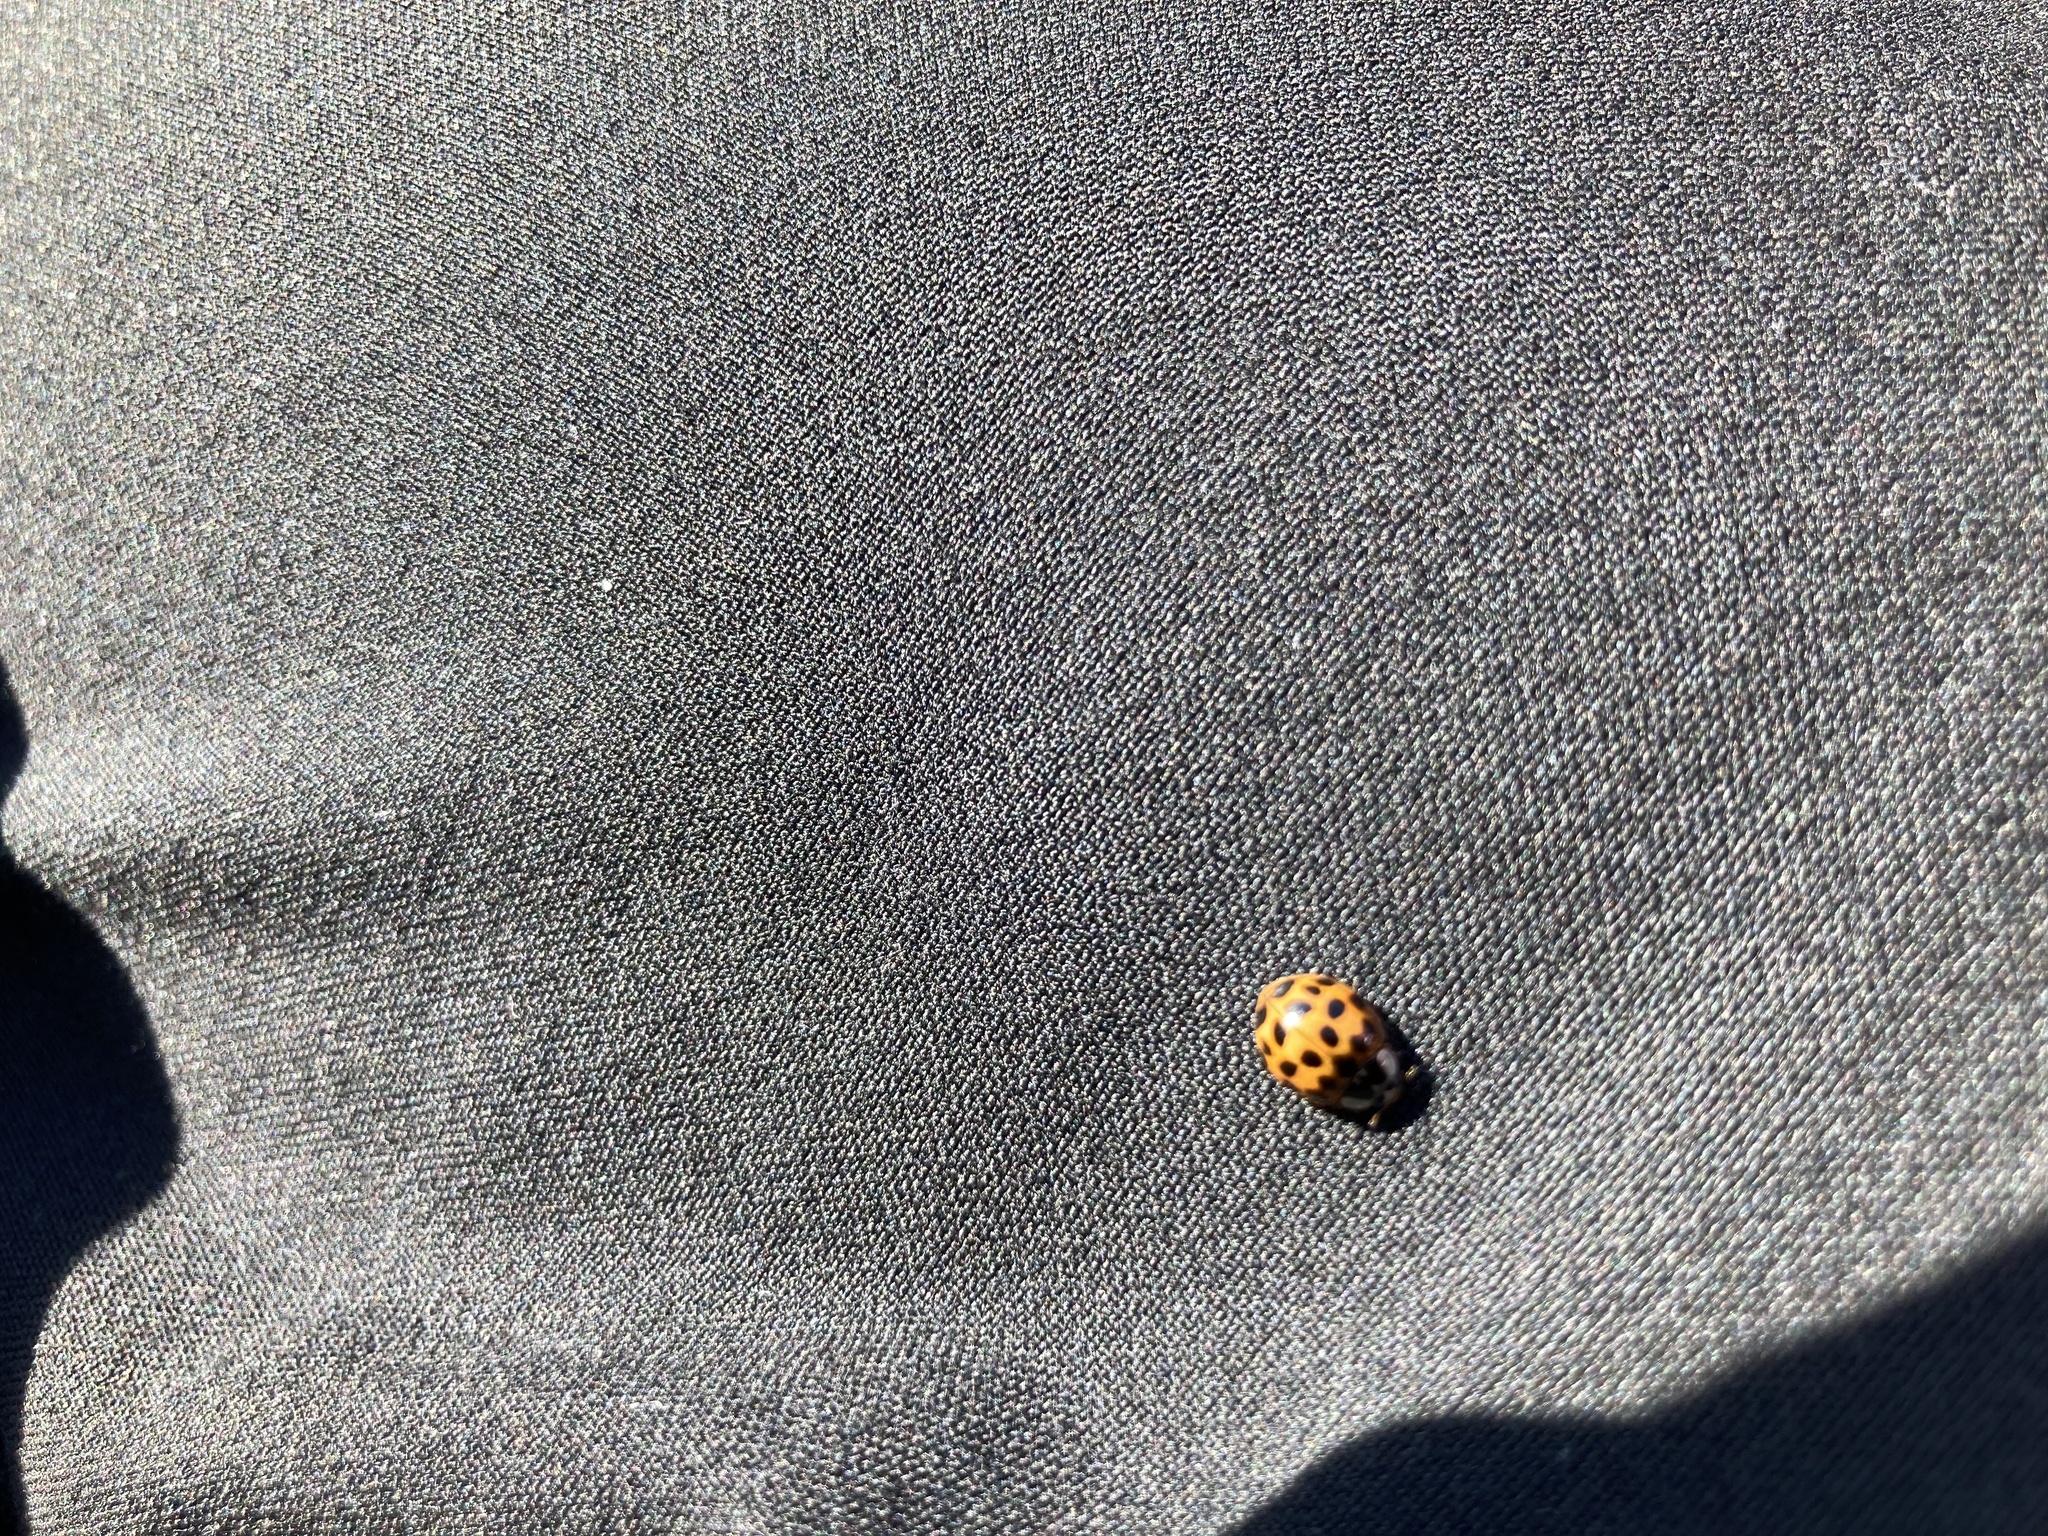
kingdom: Animalia
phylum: Arthropoda
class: Insecta
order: Coleoptera
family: Coccinellidae
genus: Harmonia
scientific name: Harmonia axyridis
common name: Harlequin ladybird
